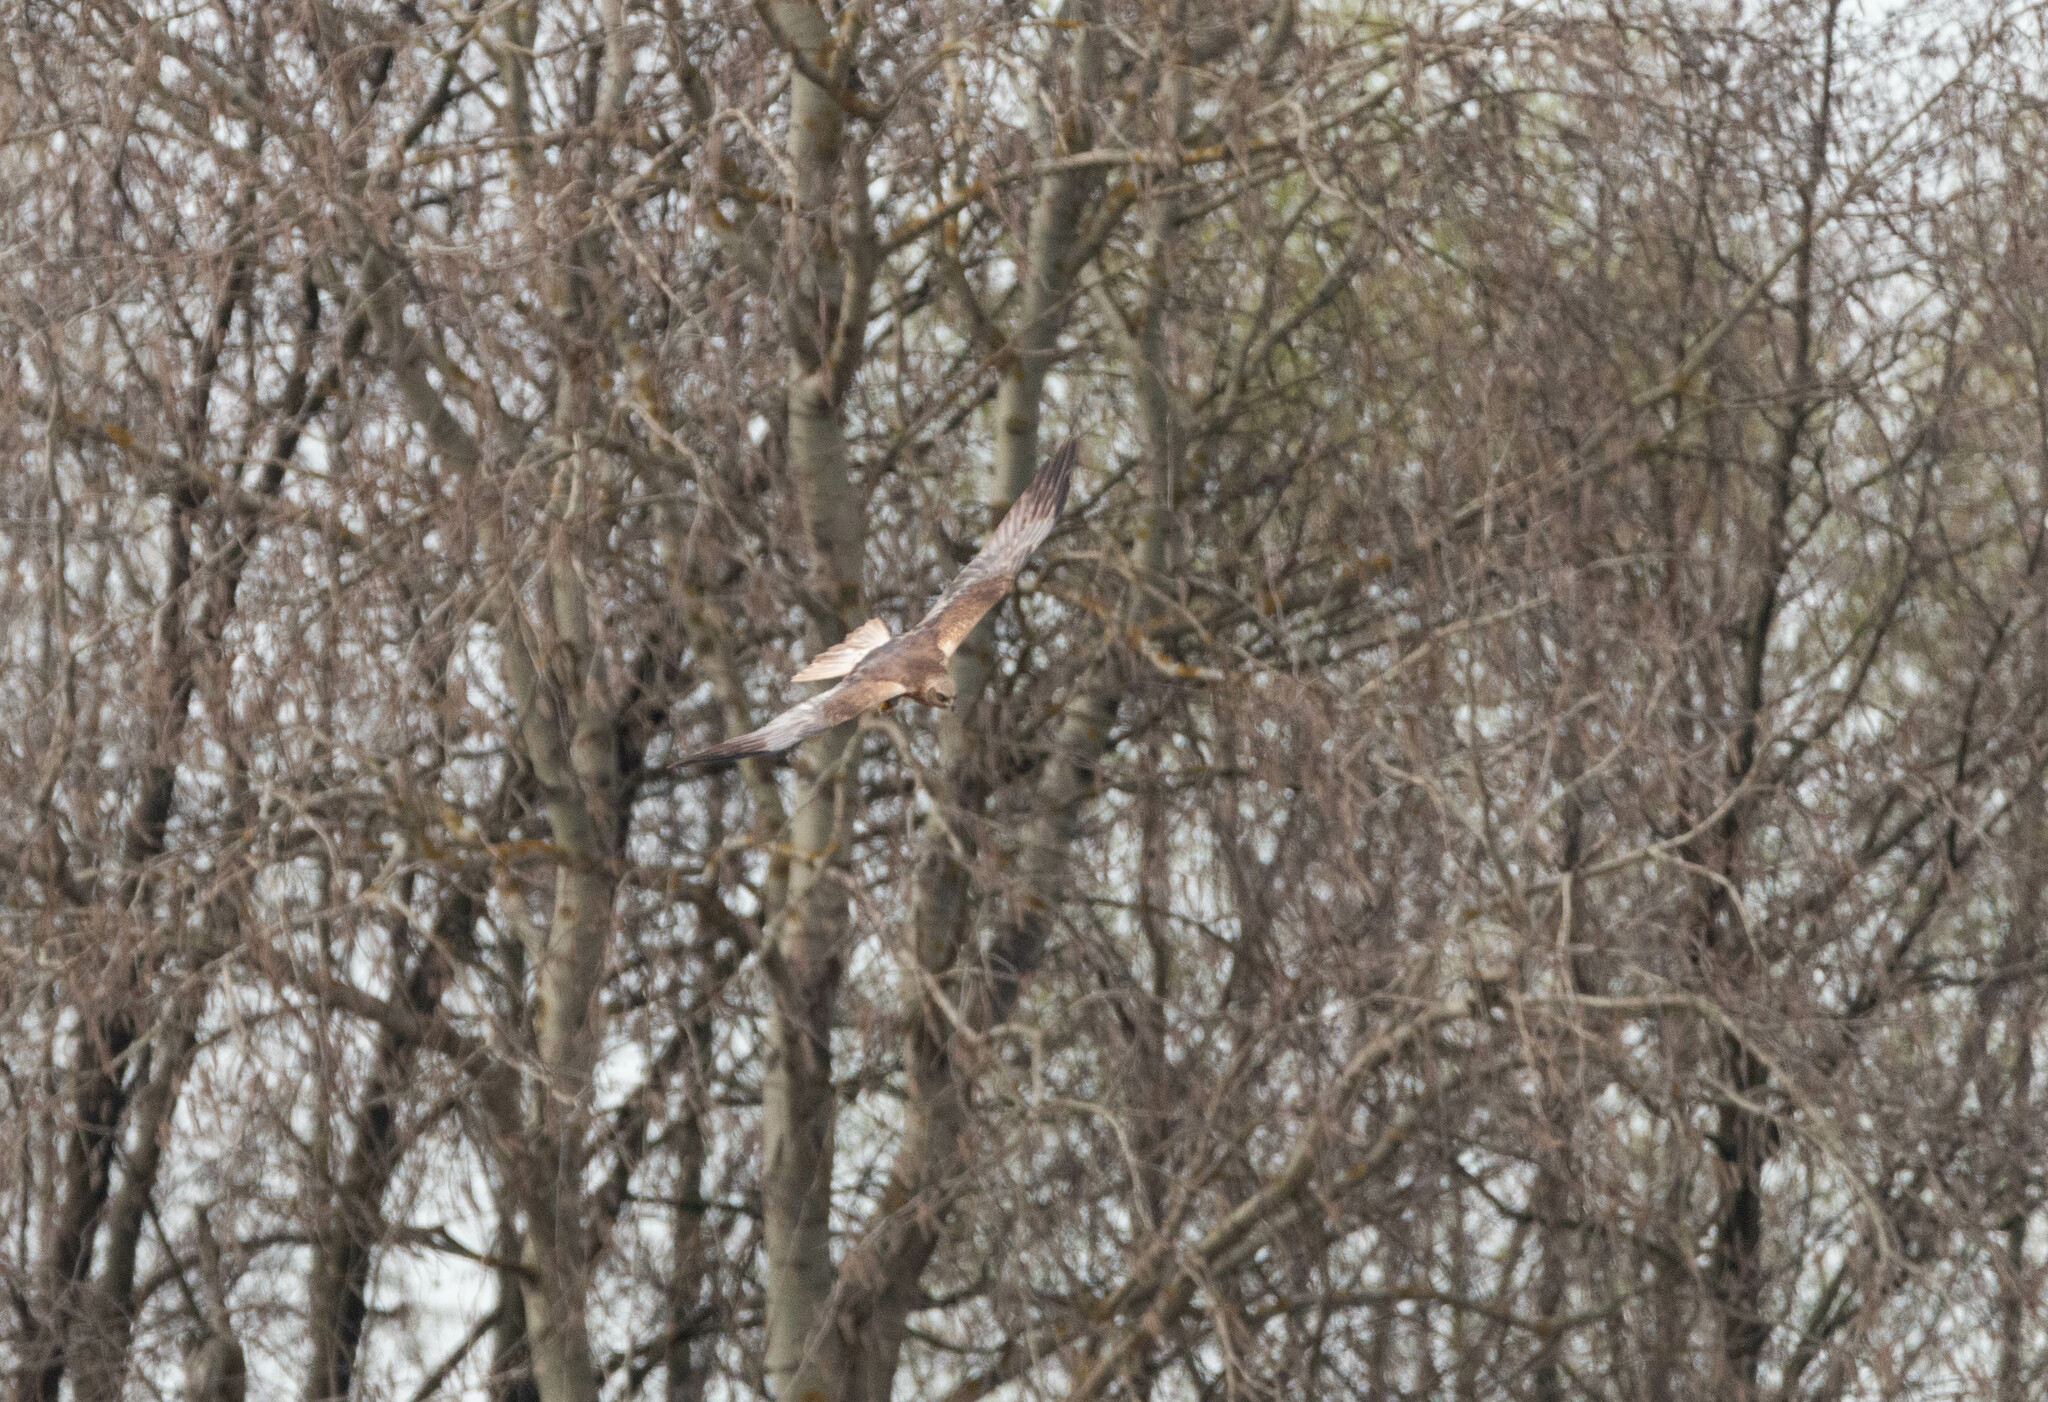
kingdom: Animalia
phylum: Chordata
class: Aves
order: Accipitriformes
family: Accipitridae
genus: Circus
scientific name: Circus aeruginosus
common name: Western marsh harrier
